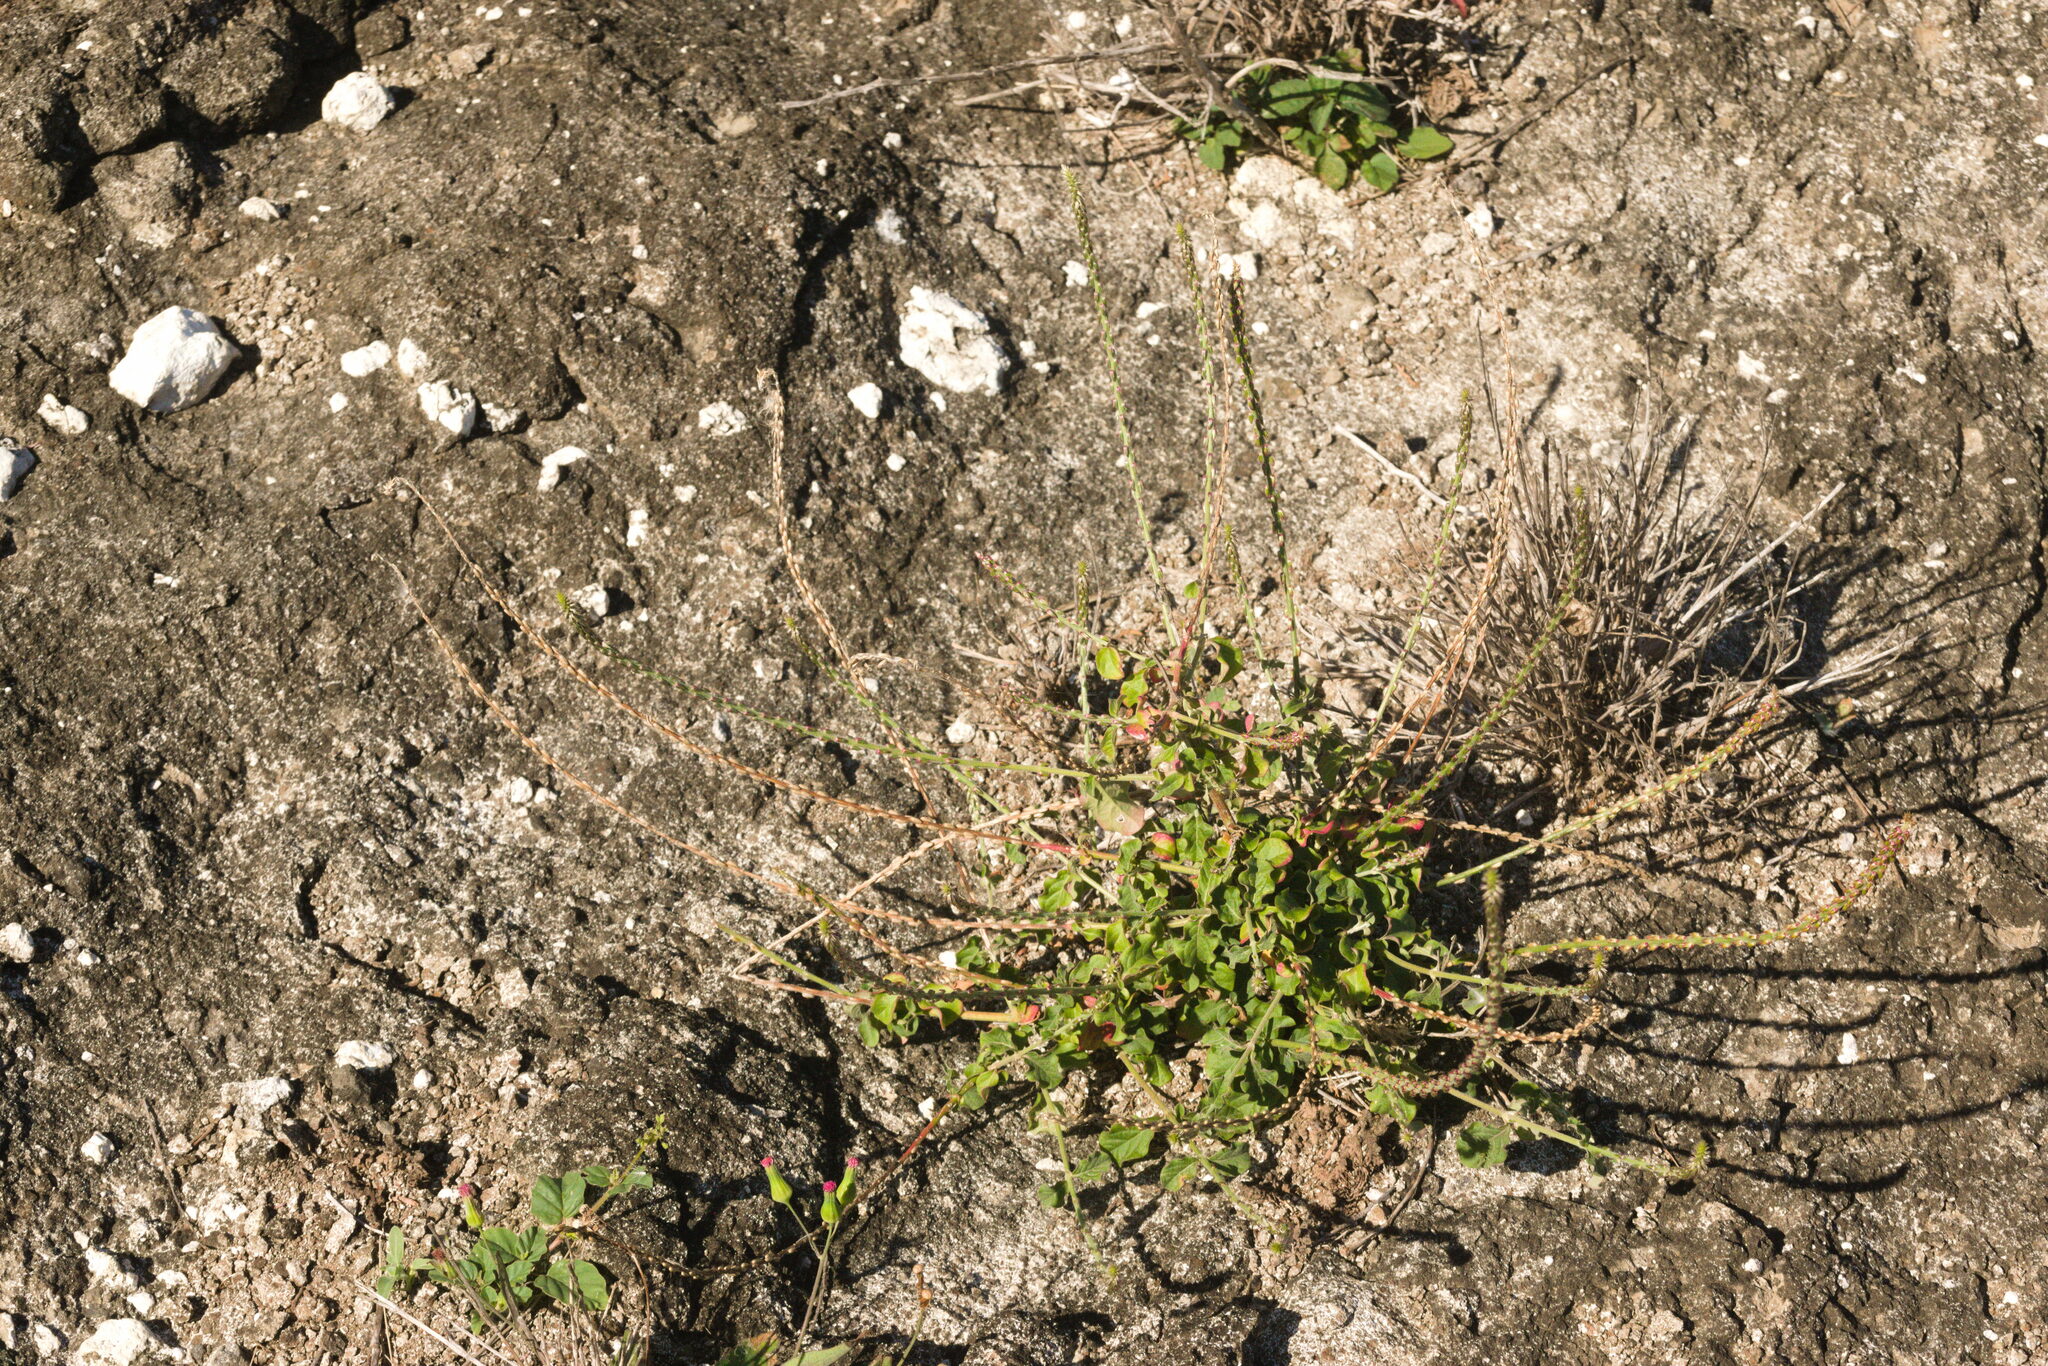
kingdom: Plantae
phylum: Tracheophyta
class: Magnoliopsida
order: Caryophyllales
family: Amaranthaceae
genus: Achyranthes
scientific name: Achyranthes aspera
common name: Devil's horsewhip
